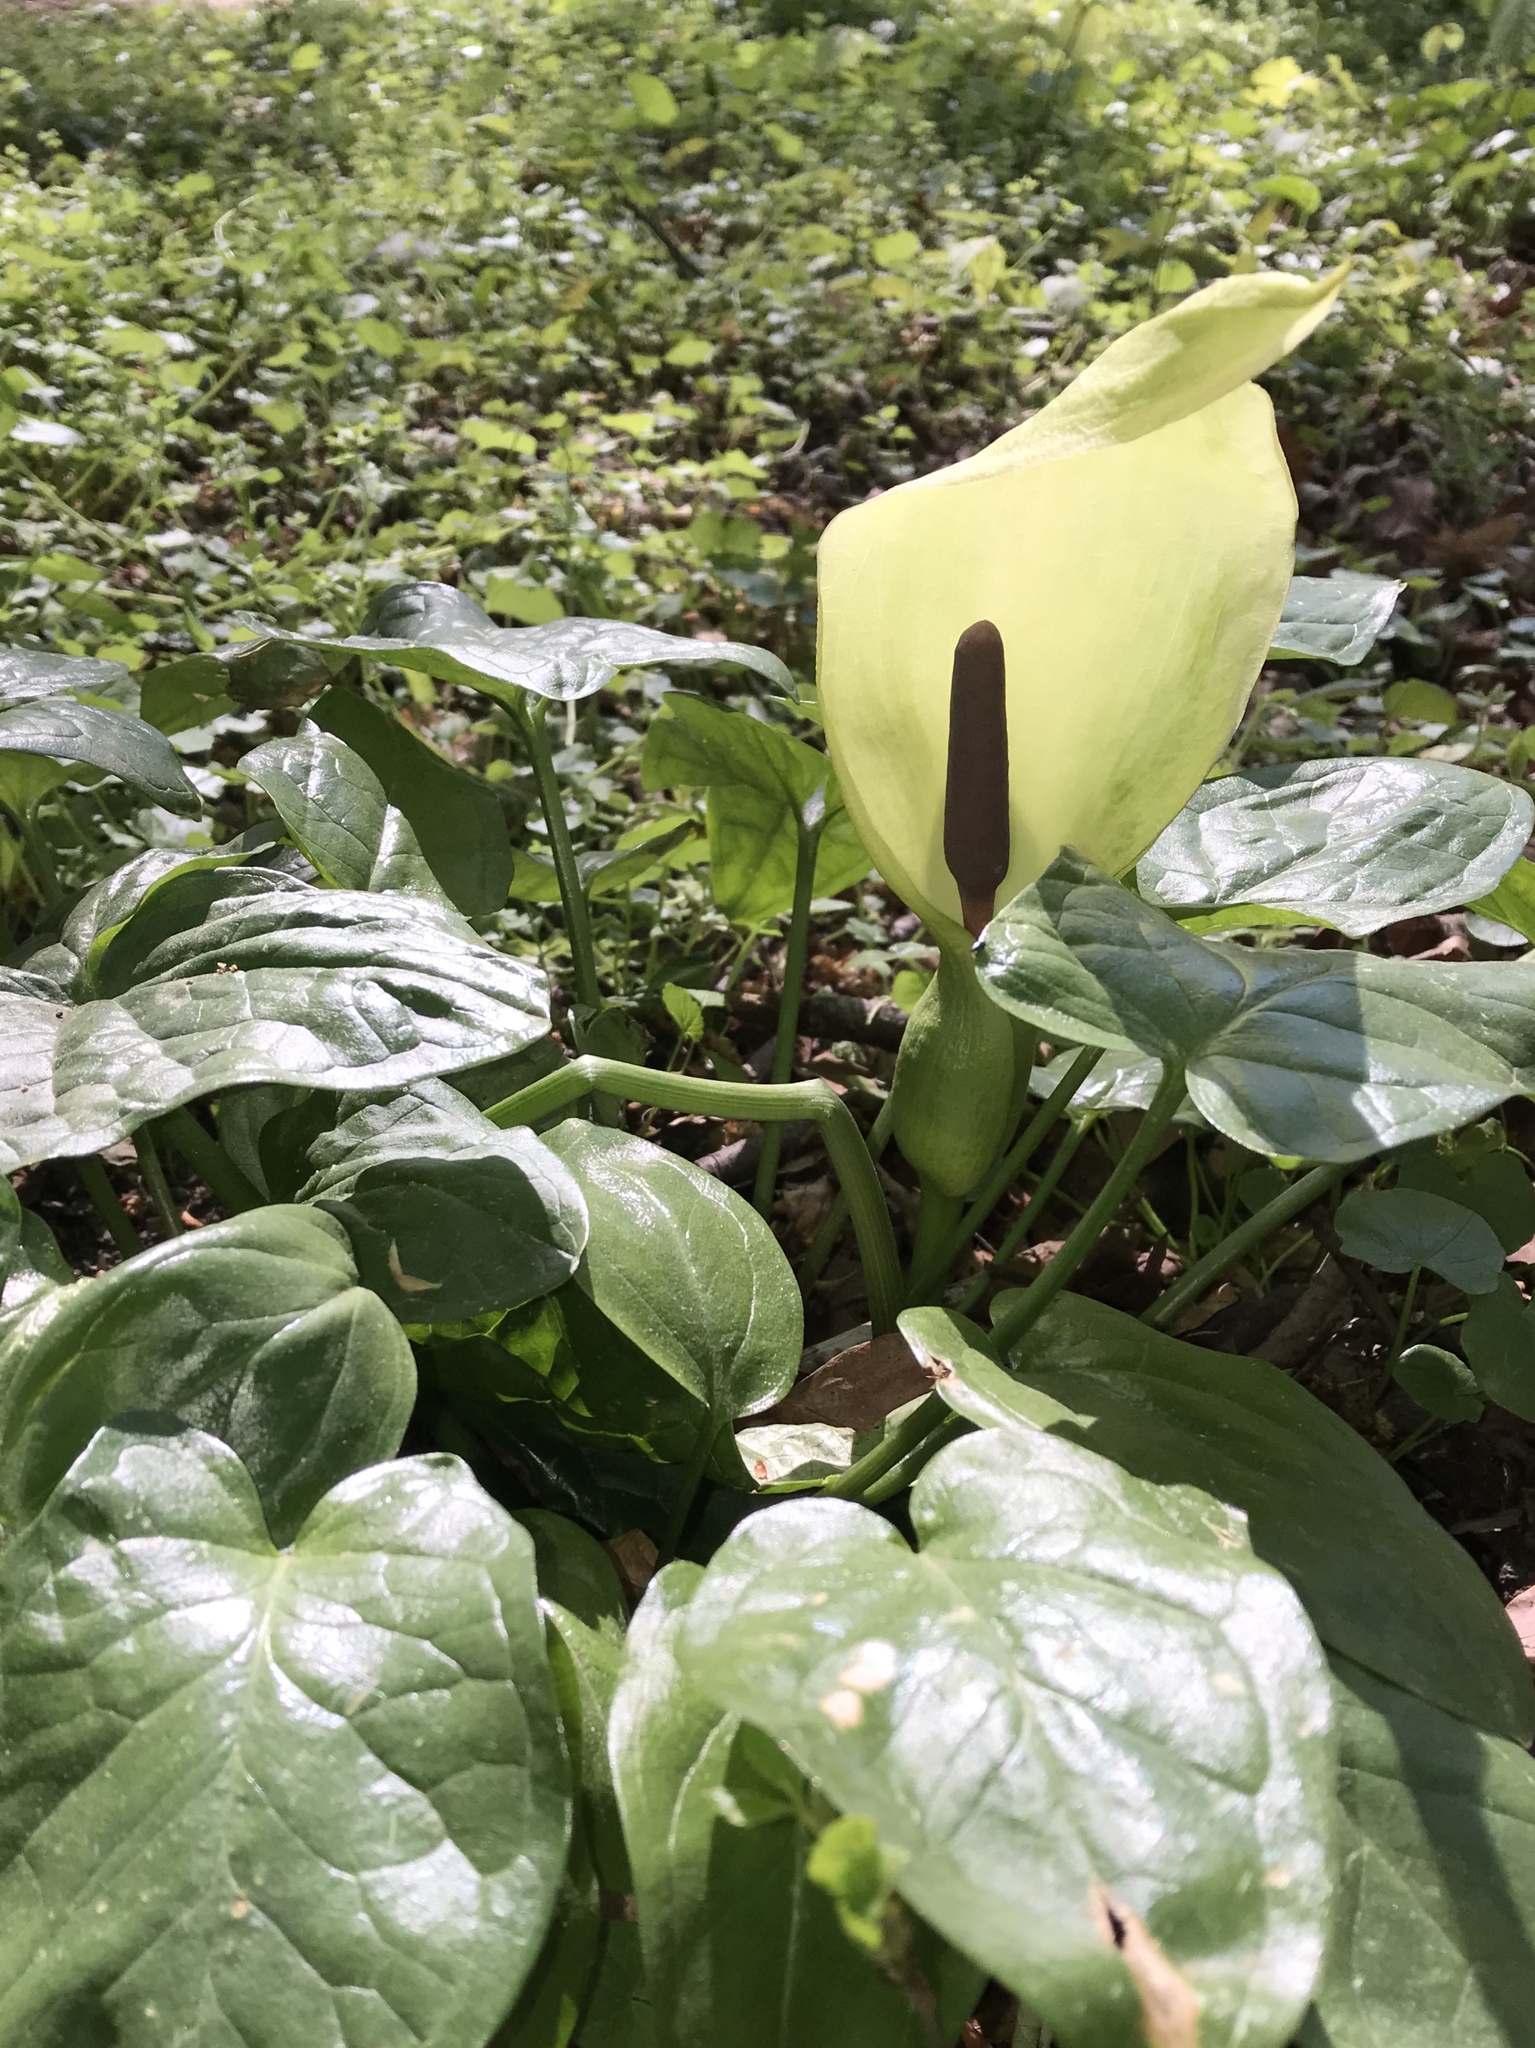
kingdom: Plantae
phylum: Tracheophyta
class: Liliopsida
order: Alismatales
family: Araceae
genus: Arum
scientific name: Arum maculatum
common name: Lords-and-ladies
